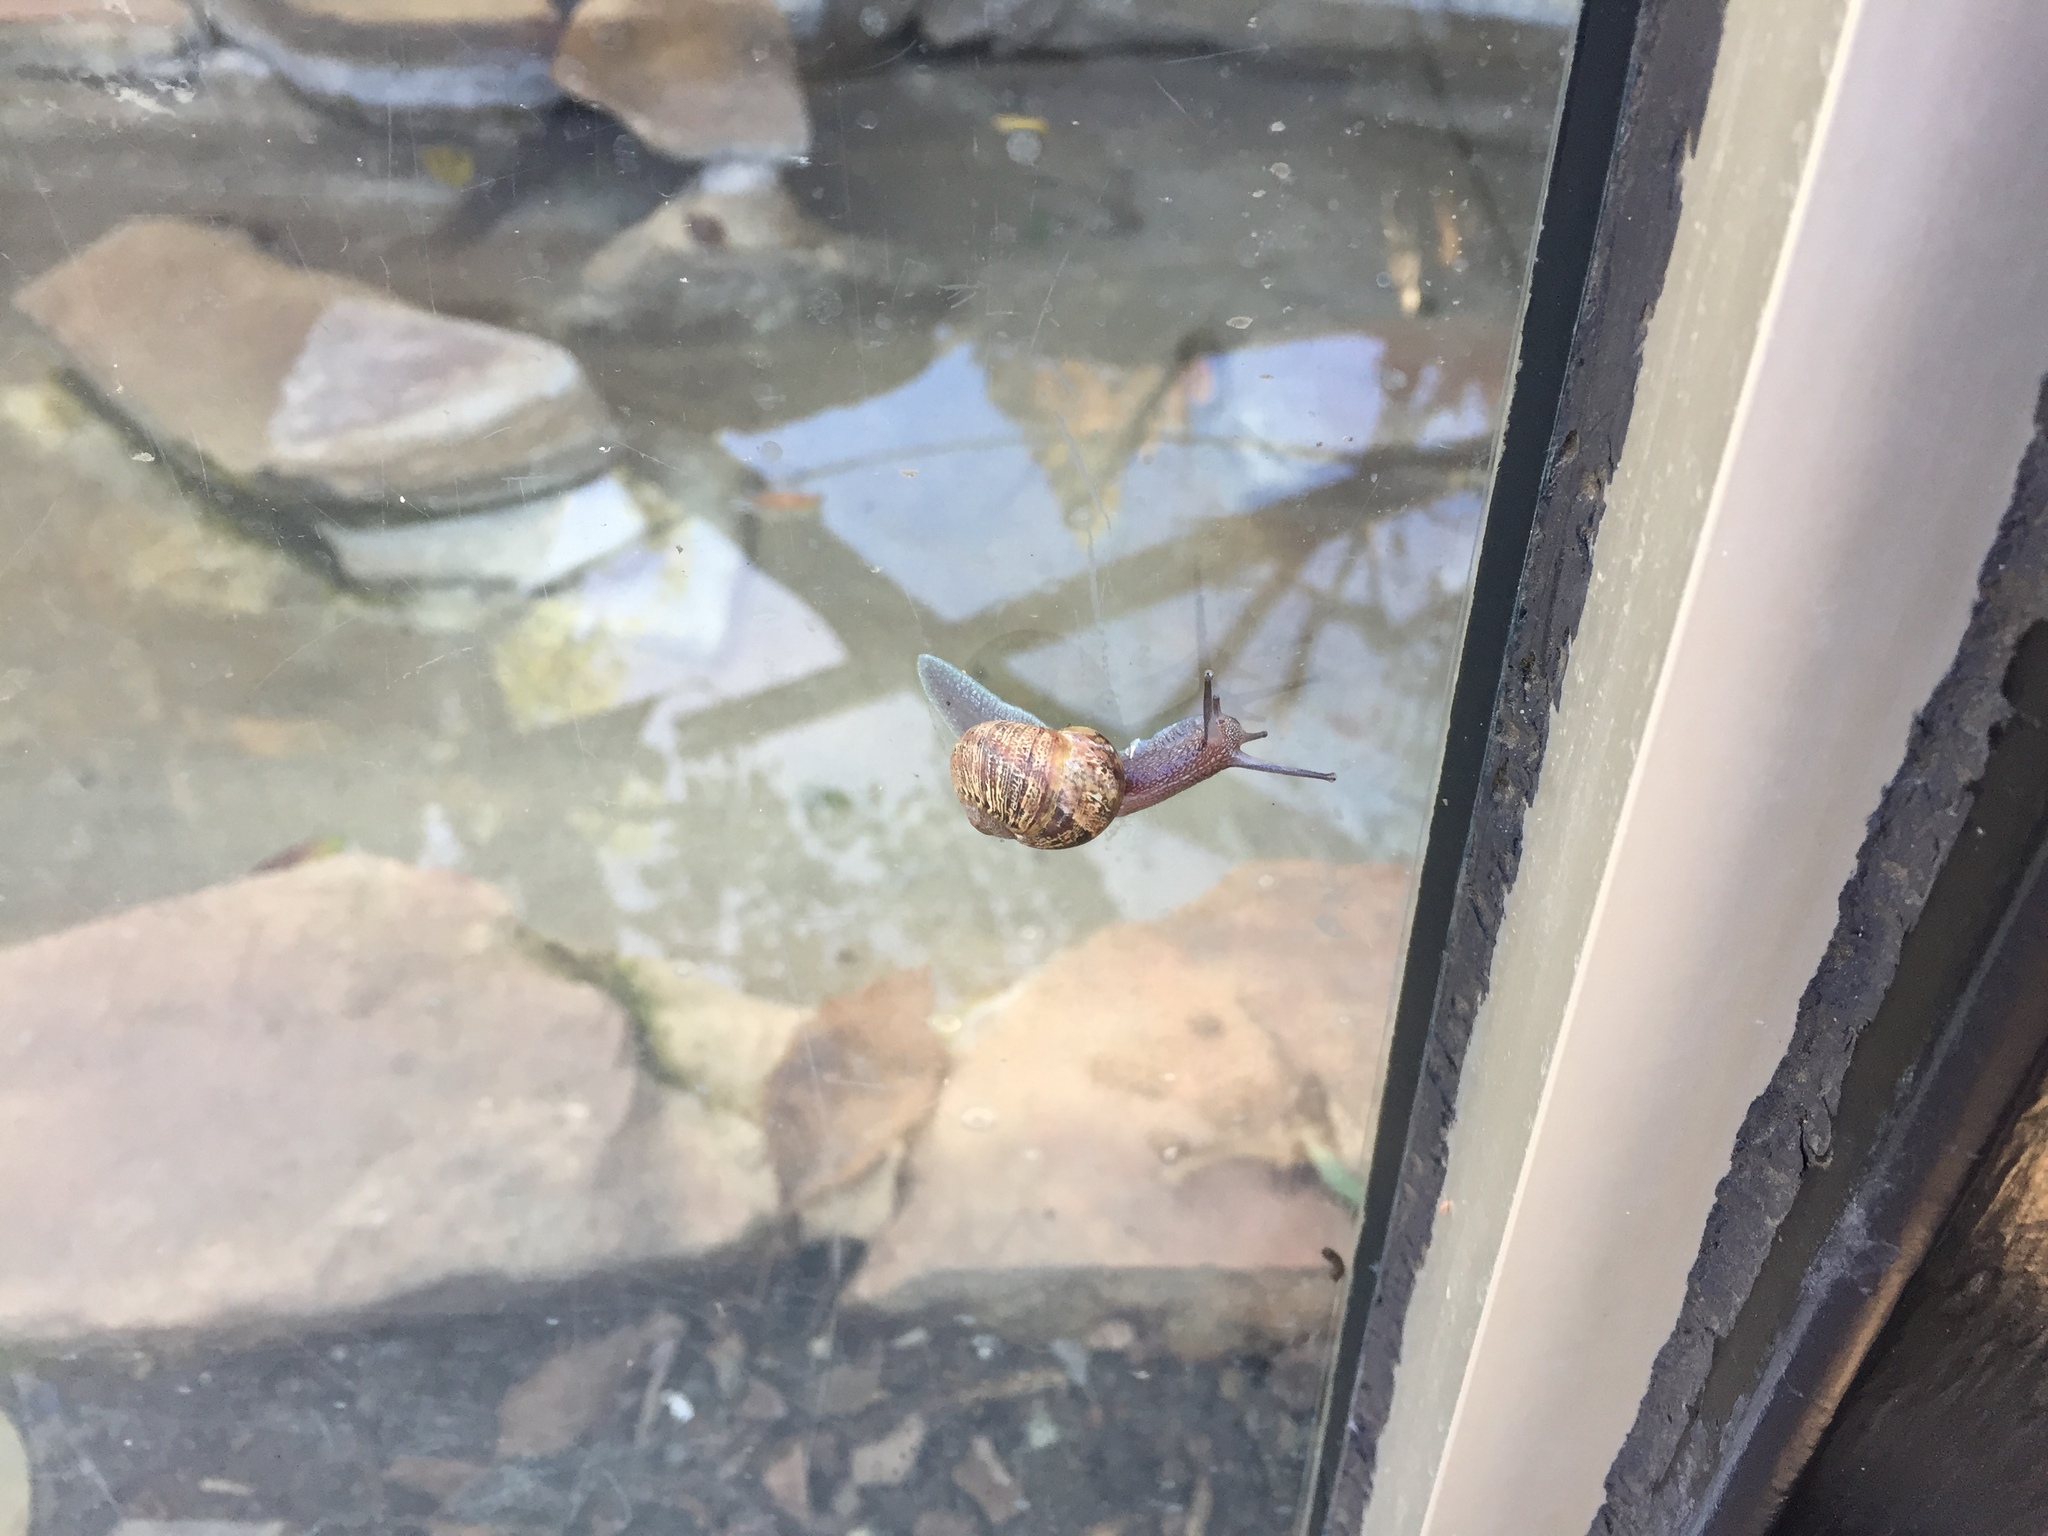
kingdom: Animalia
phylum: Mollusca
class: Gastropoda
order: Stylommatophora
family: Helicidae
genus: Cornu
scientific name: Cornu aspersum
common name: Brown garden snail
